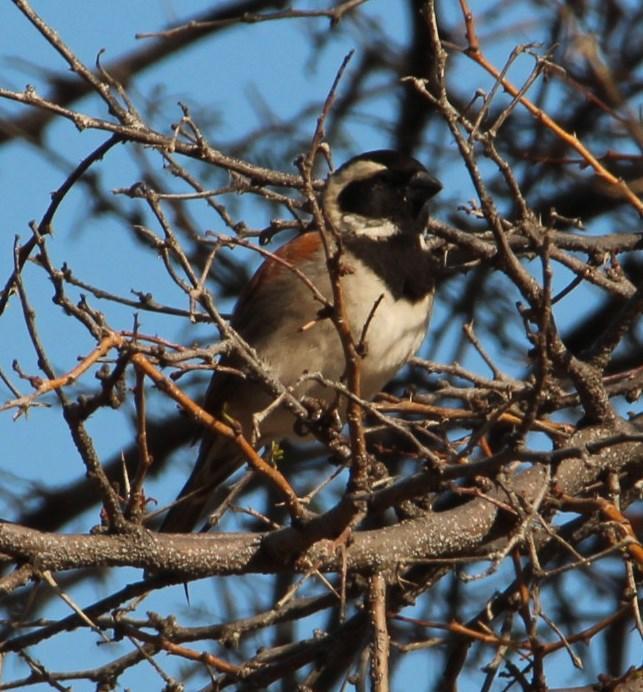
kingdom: Animalia
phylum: Chordata
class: Aves
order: Passeriformes
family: Passeridae
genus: Passer
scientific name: Passer melanurus
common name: Cape sparrow
